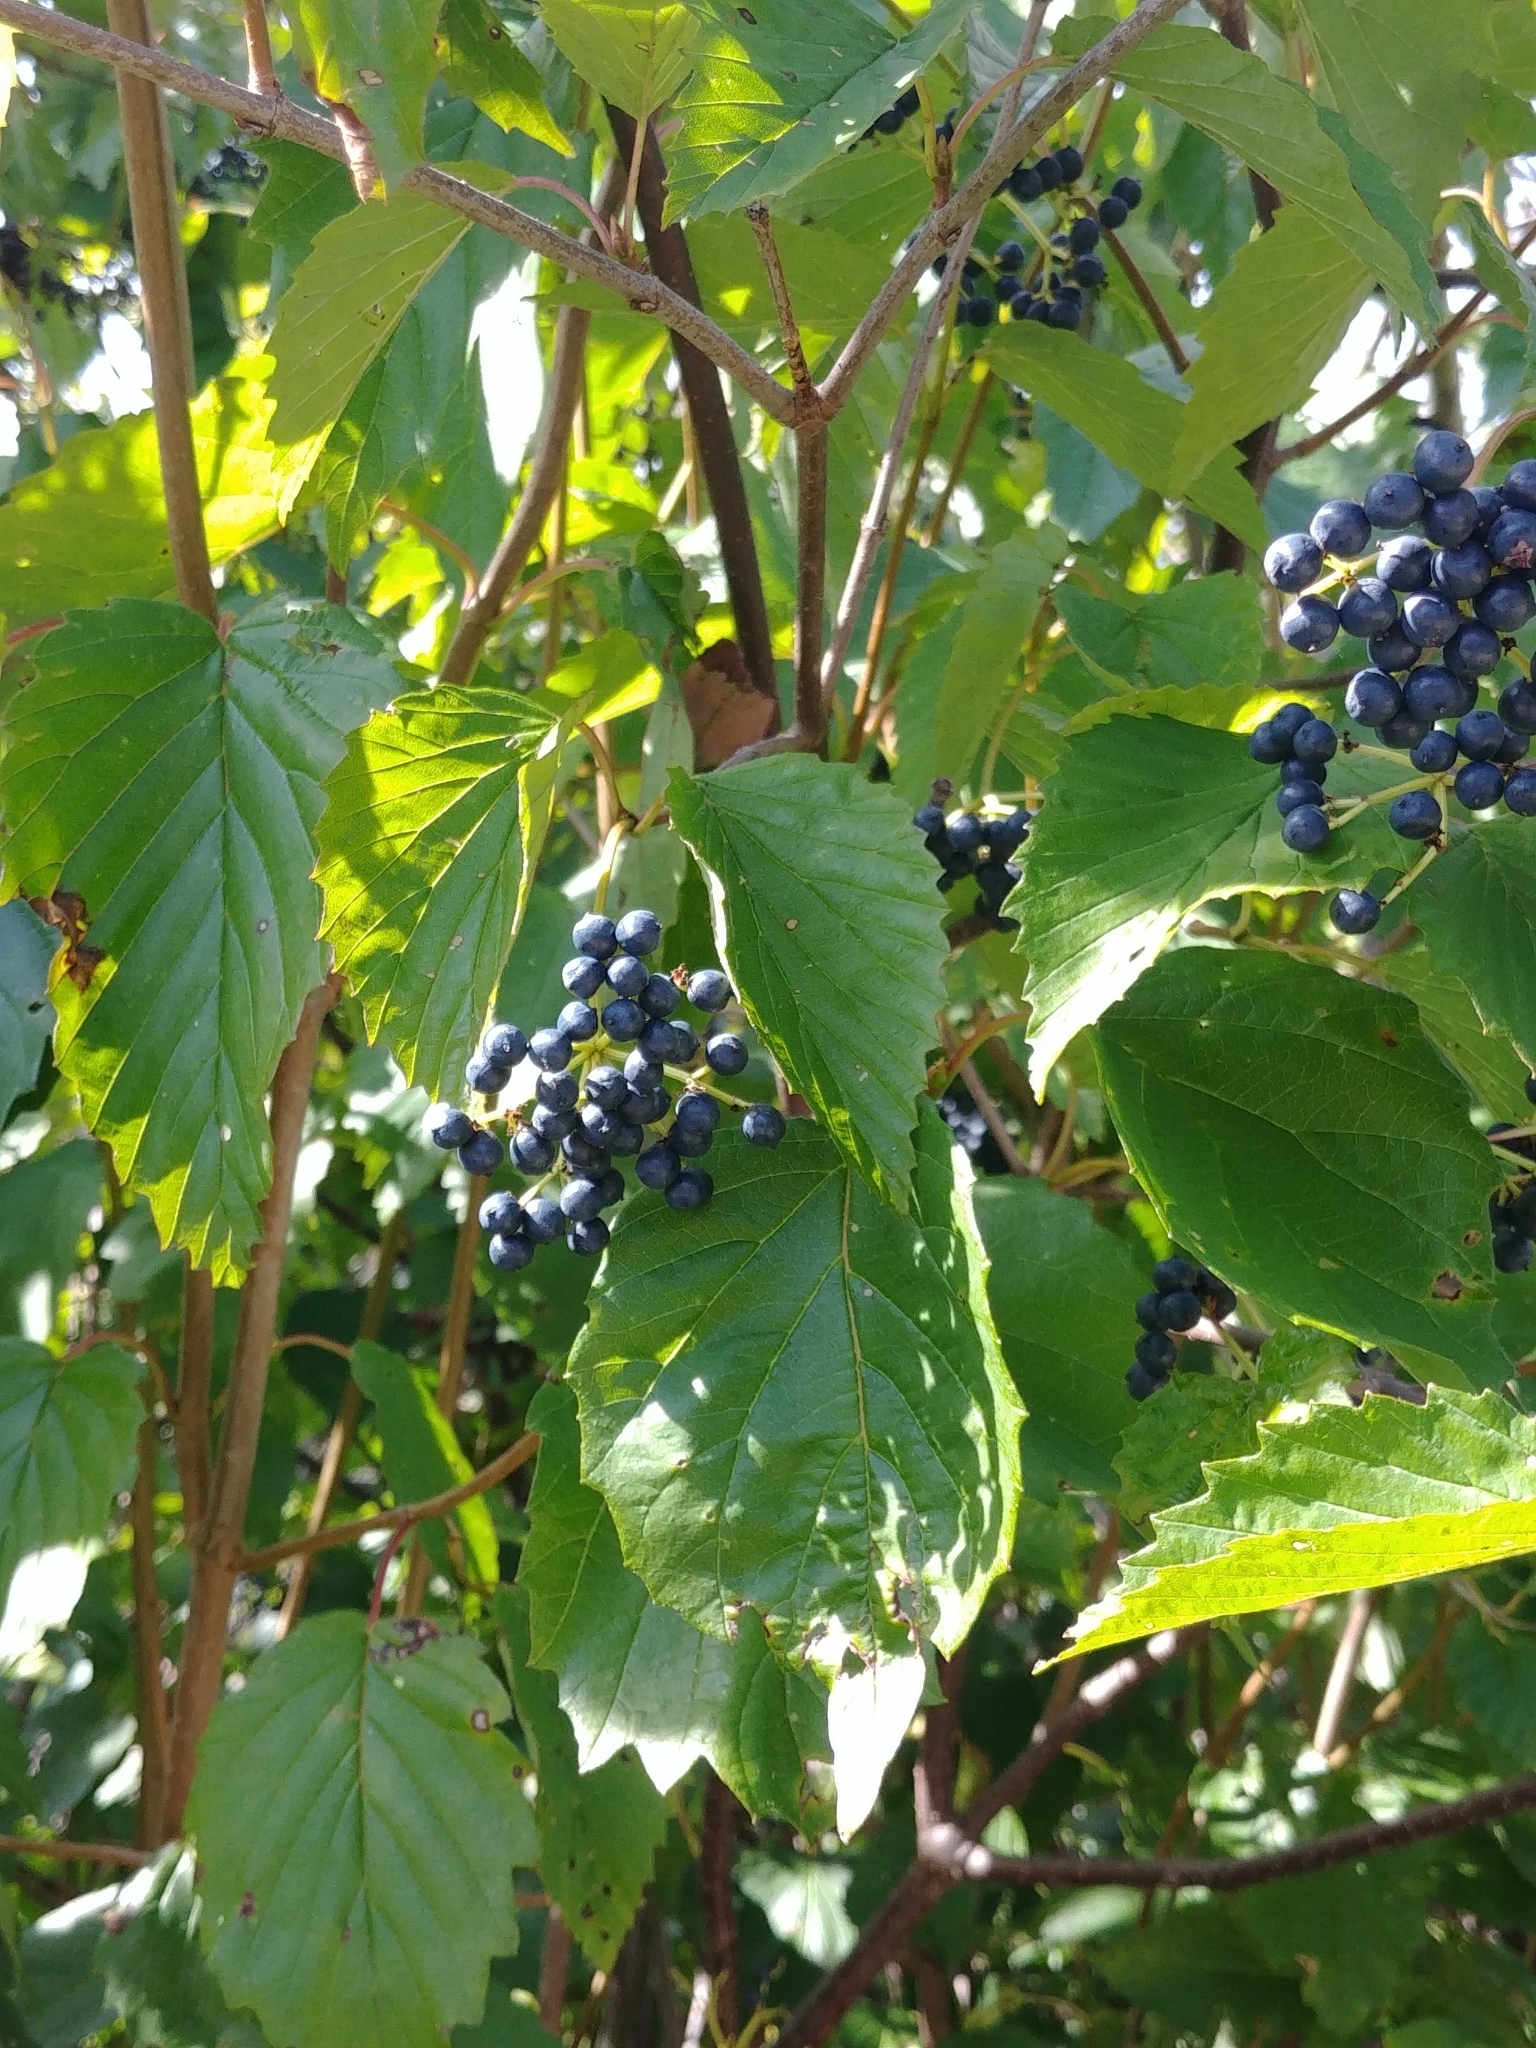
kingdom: Plantae
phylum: Tracheophyta
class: Magnoliopsida
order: Dipsacales
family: Viburnaceae
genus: Viburnum
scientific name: Viburnum recognitum
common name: Northern arrow-wood
